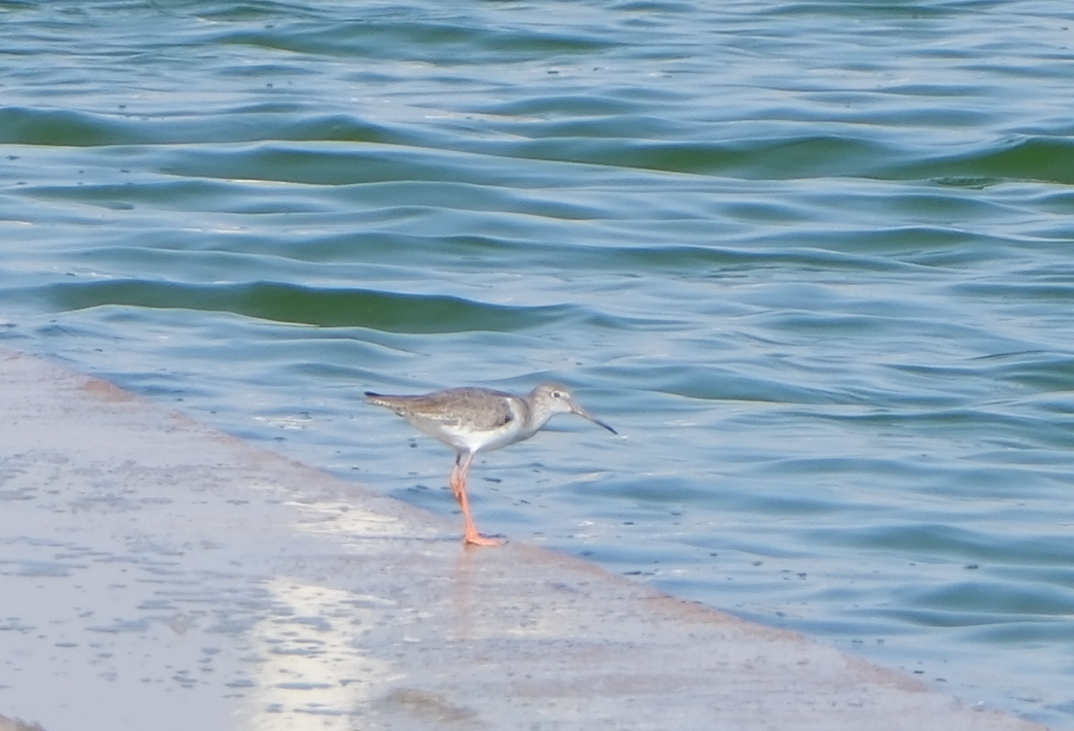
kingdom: Animalia
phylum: Chordata
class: Aves
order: Charadriiformes
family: Scolopacidae
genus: Tringa
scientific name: Tringa totanus
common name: Common redshank
